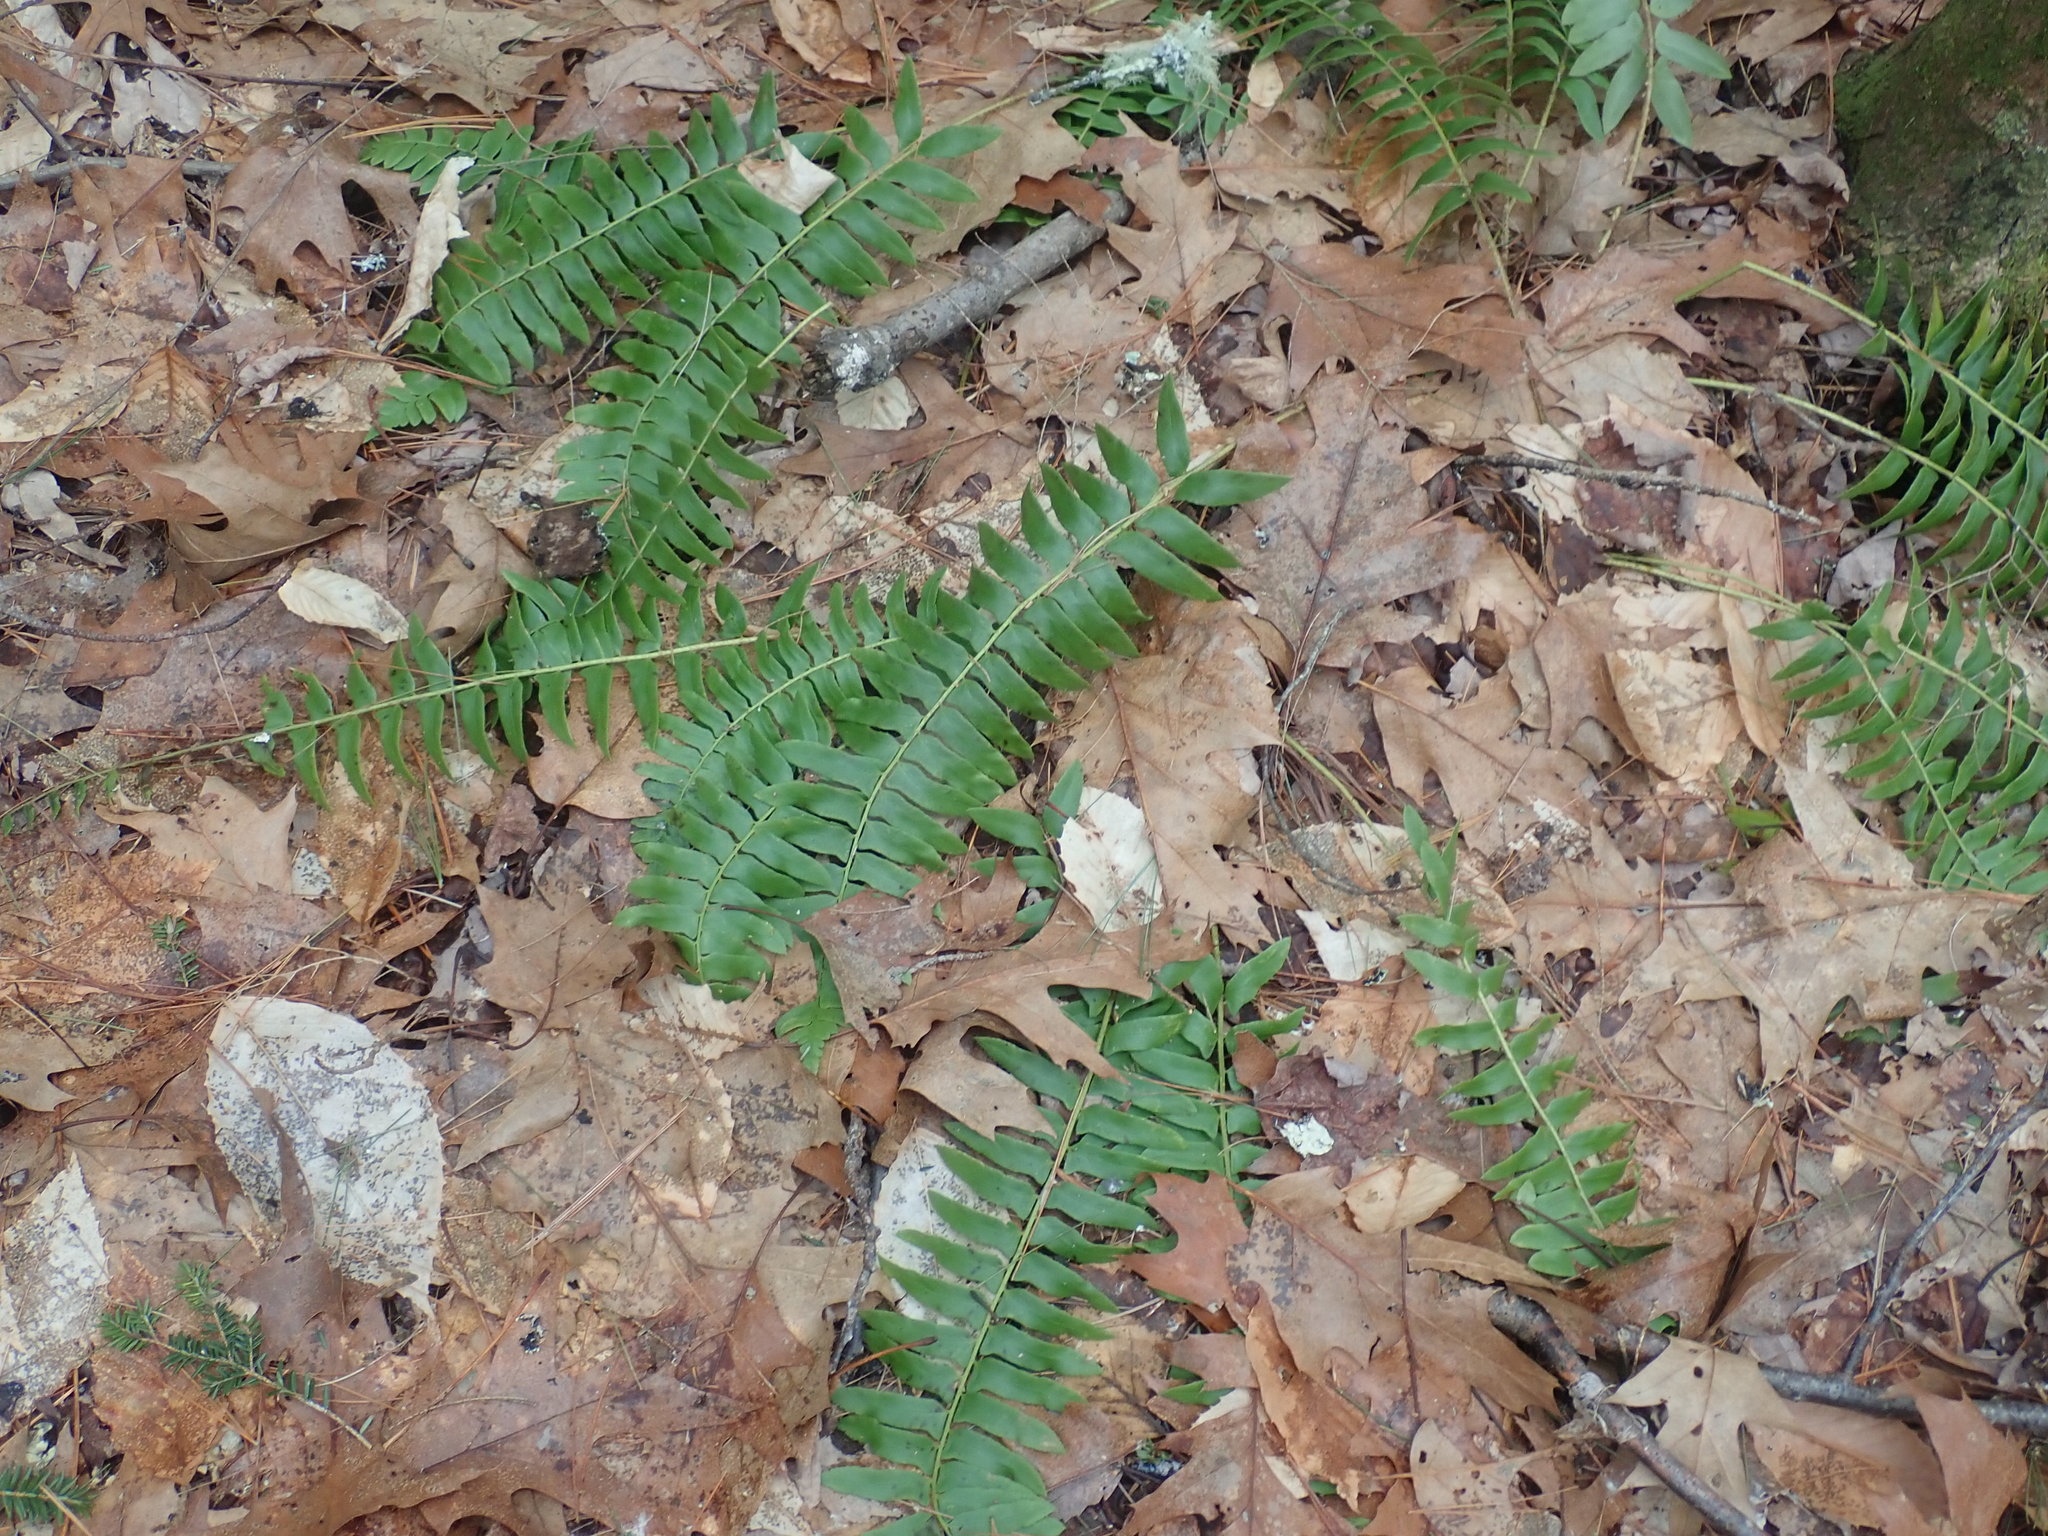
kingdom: Plantae
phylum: Tracheophyta
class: Polypodiopsida
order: Polypodiales
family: Dryopteridaceae
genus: Polystichum
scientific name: Polystichum acrostichoides
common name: Christmas fern
